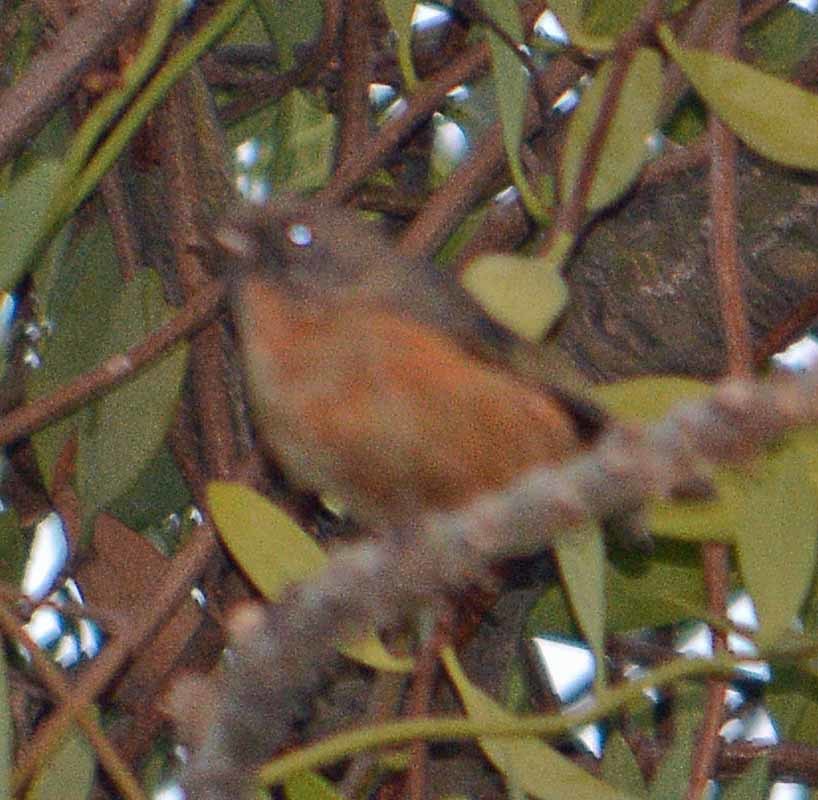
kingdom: Animalia
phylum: Chordata
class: Aves
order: Passeriformes
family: Thraupidae
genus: Diglossa
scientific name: Diglossa baritula
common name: Cinnamon-bellied flowerpiercer
